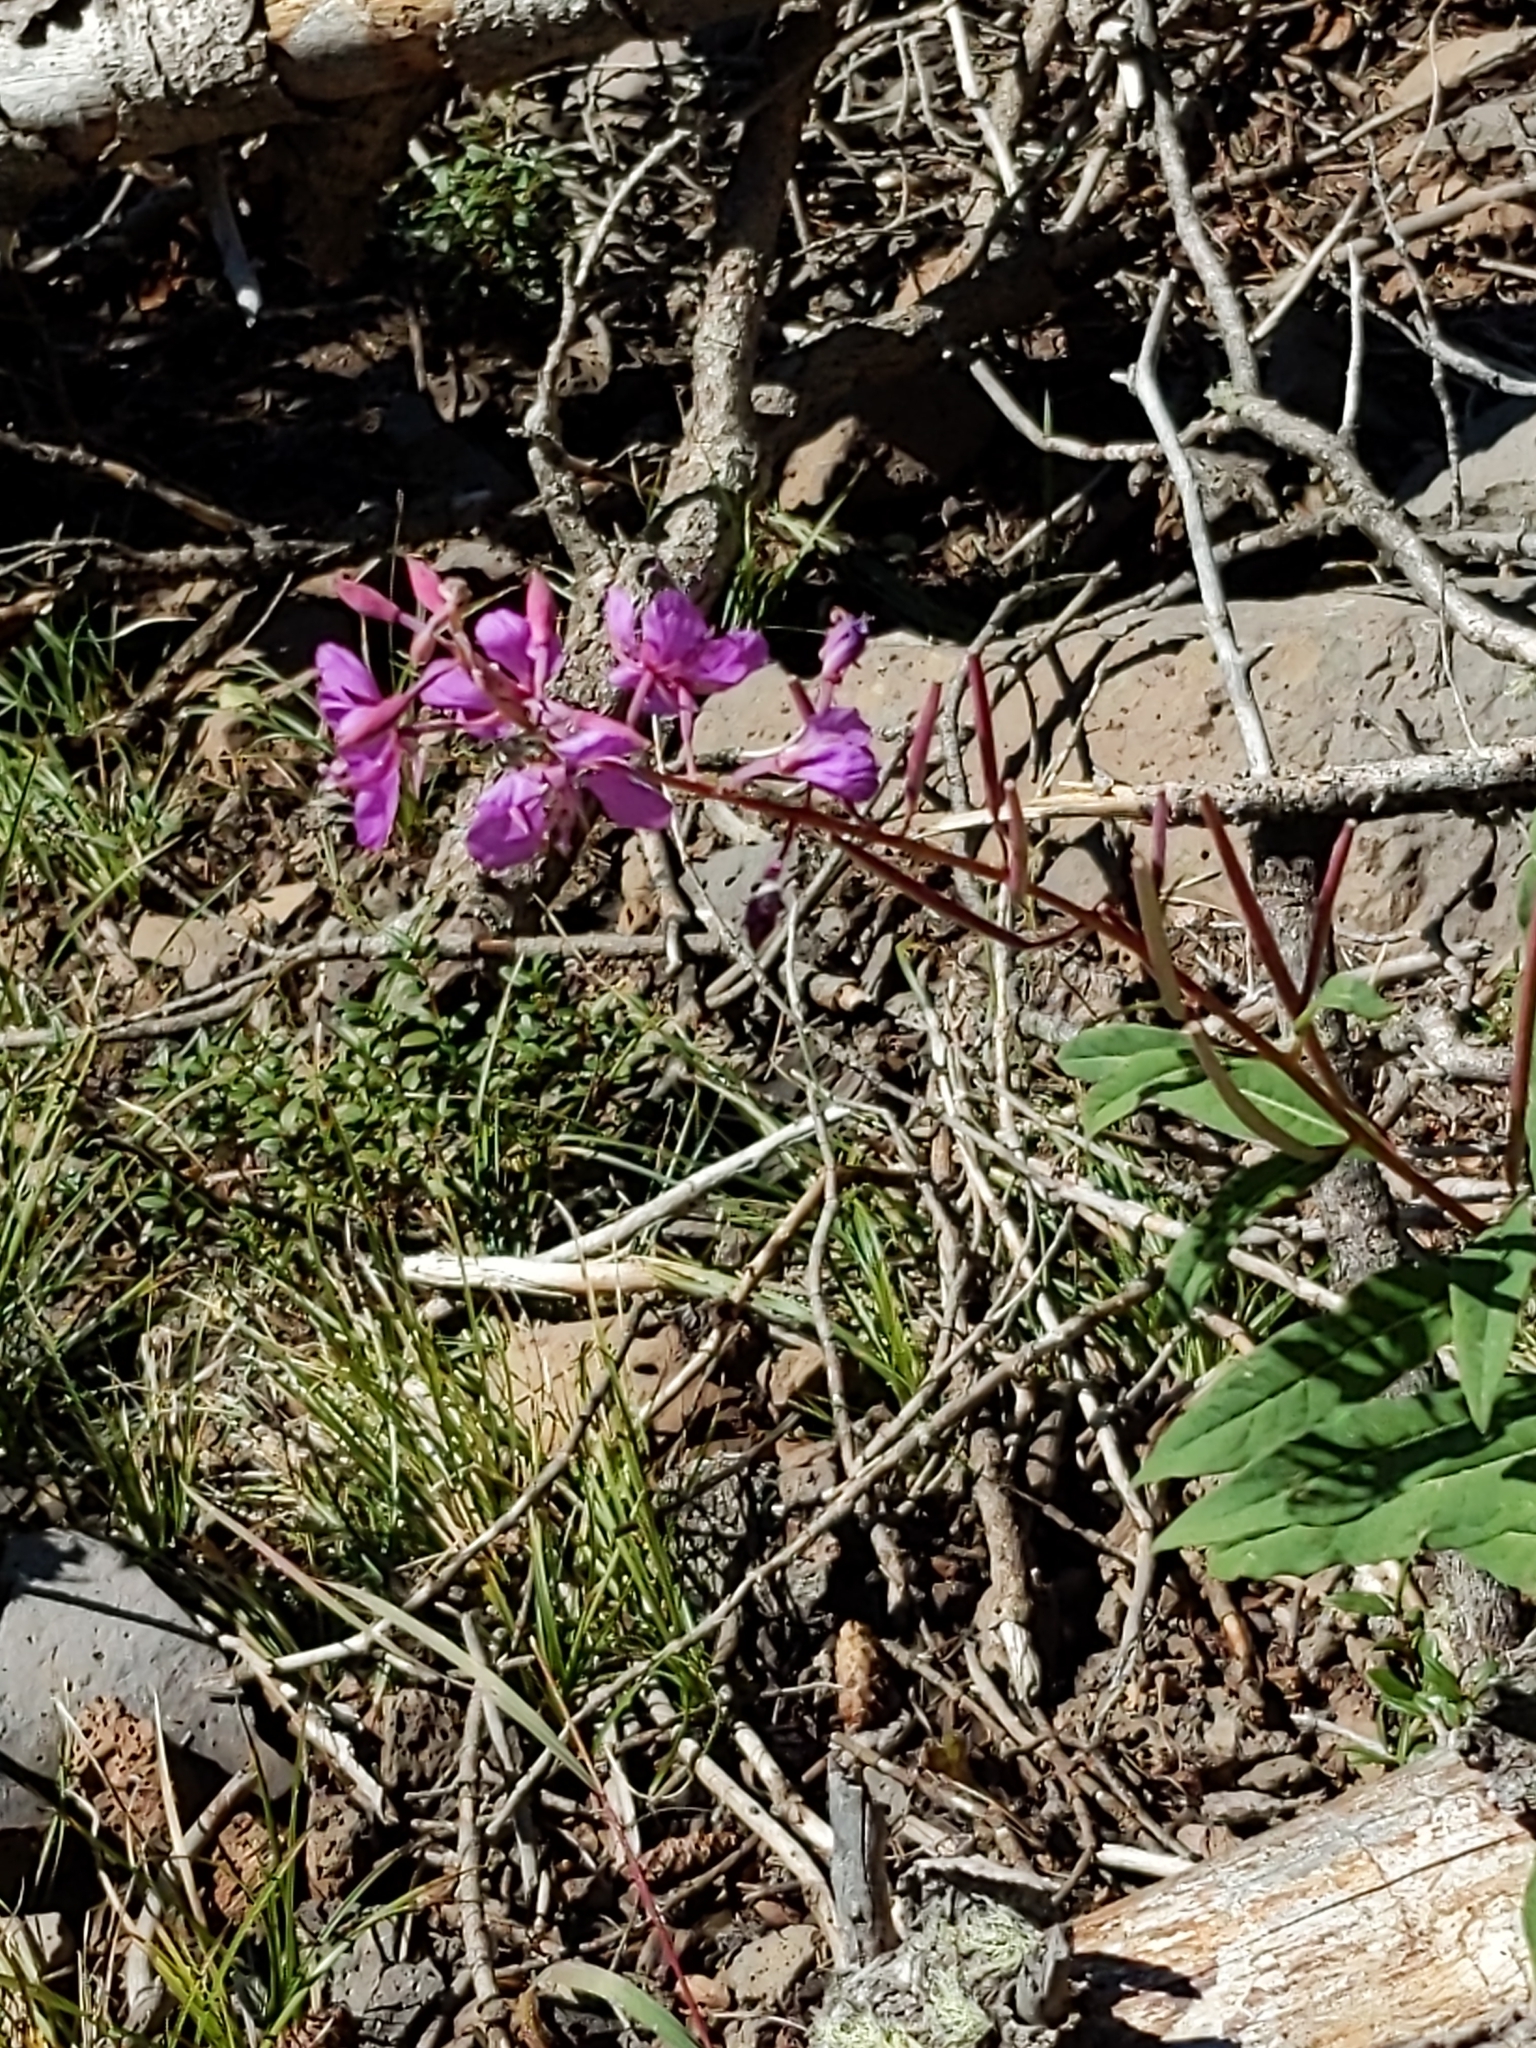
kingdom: Plantae
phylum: Tracheophyta
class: Magnoliopsida
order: Myrtales
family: Onagraceae
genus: Chamaenerion
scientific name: Chamaenerion angustifolium
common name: Fireweed
